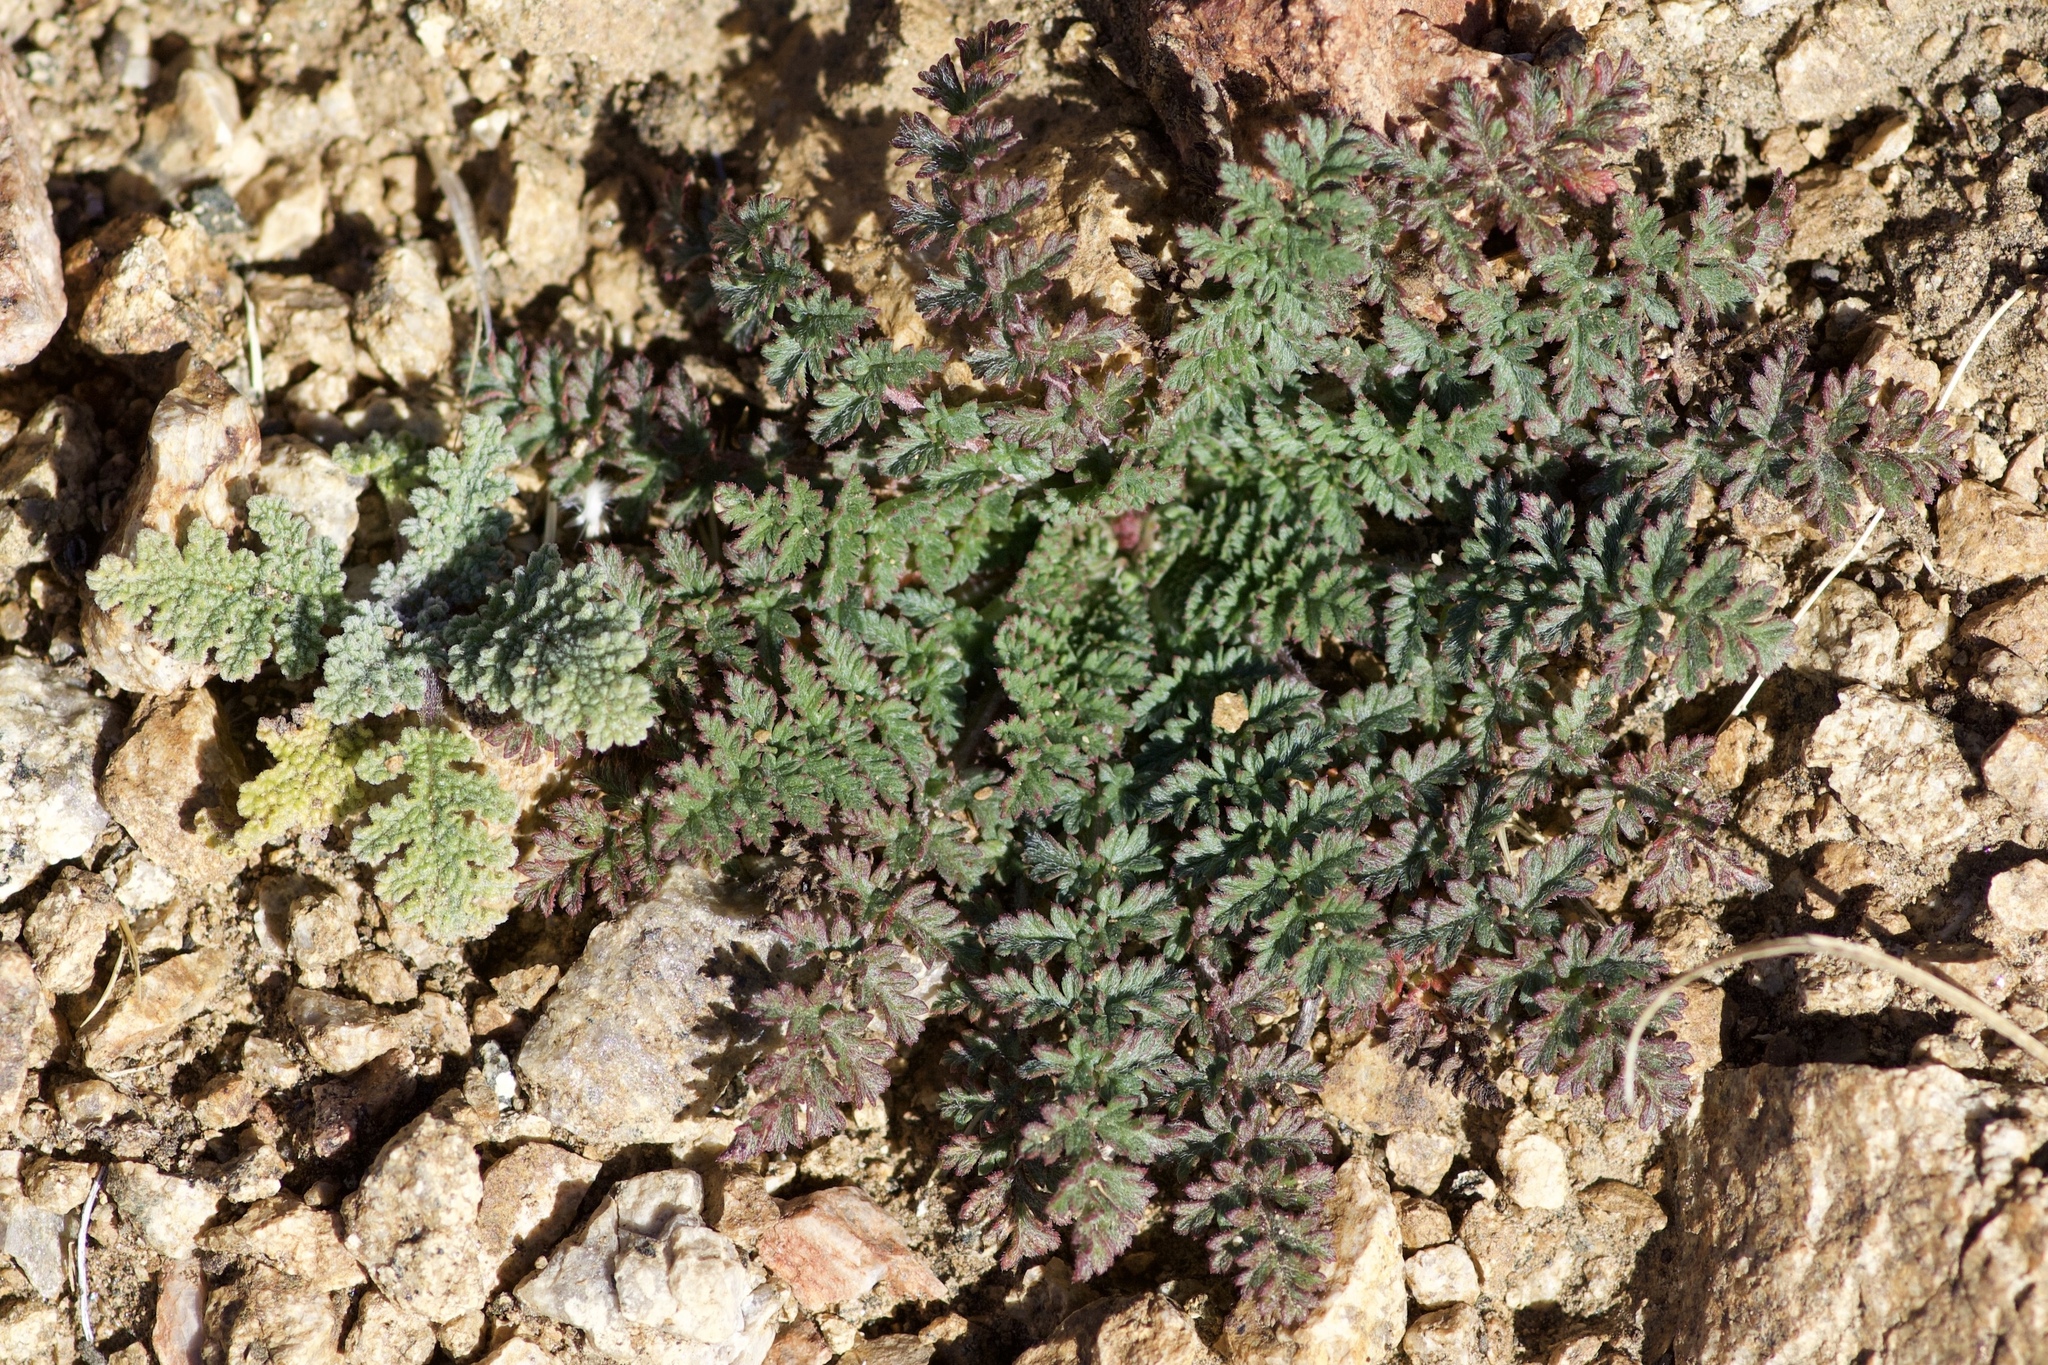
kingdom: Plantae
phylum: Tracheophyta
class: Magnoliopsida
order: Geraniales
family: Geraniaceae
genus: Erodium
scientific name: Erodium cicutarium
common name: Common stork's-bill
